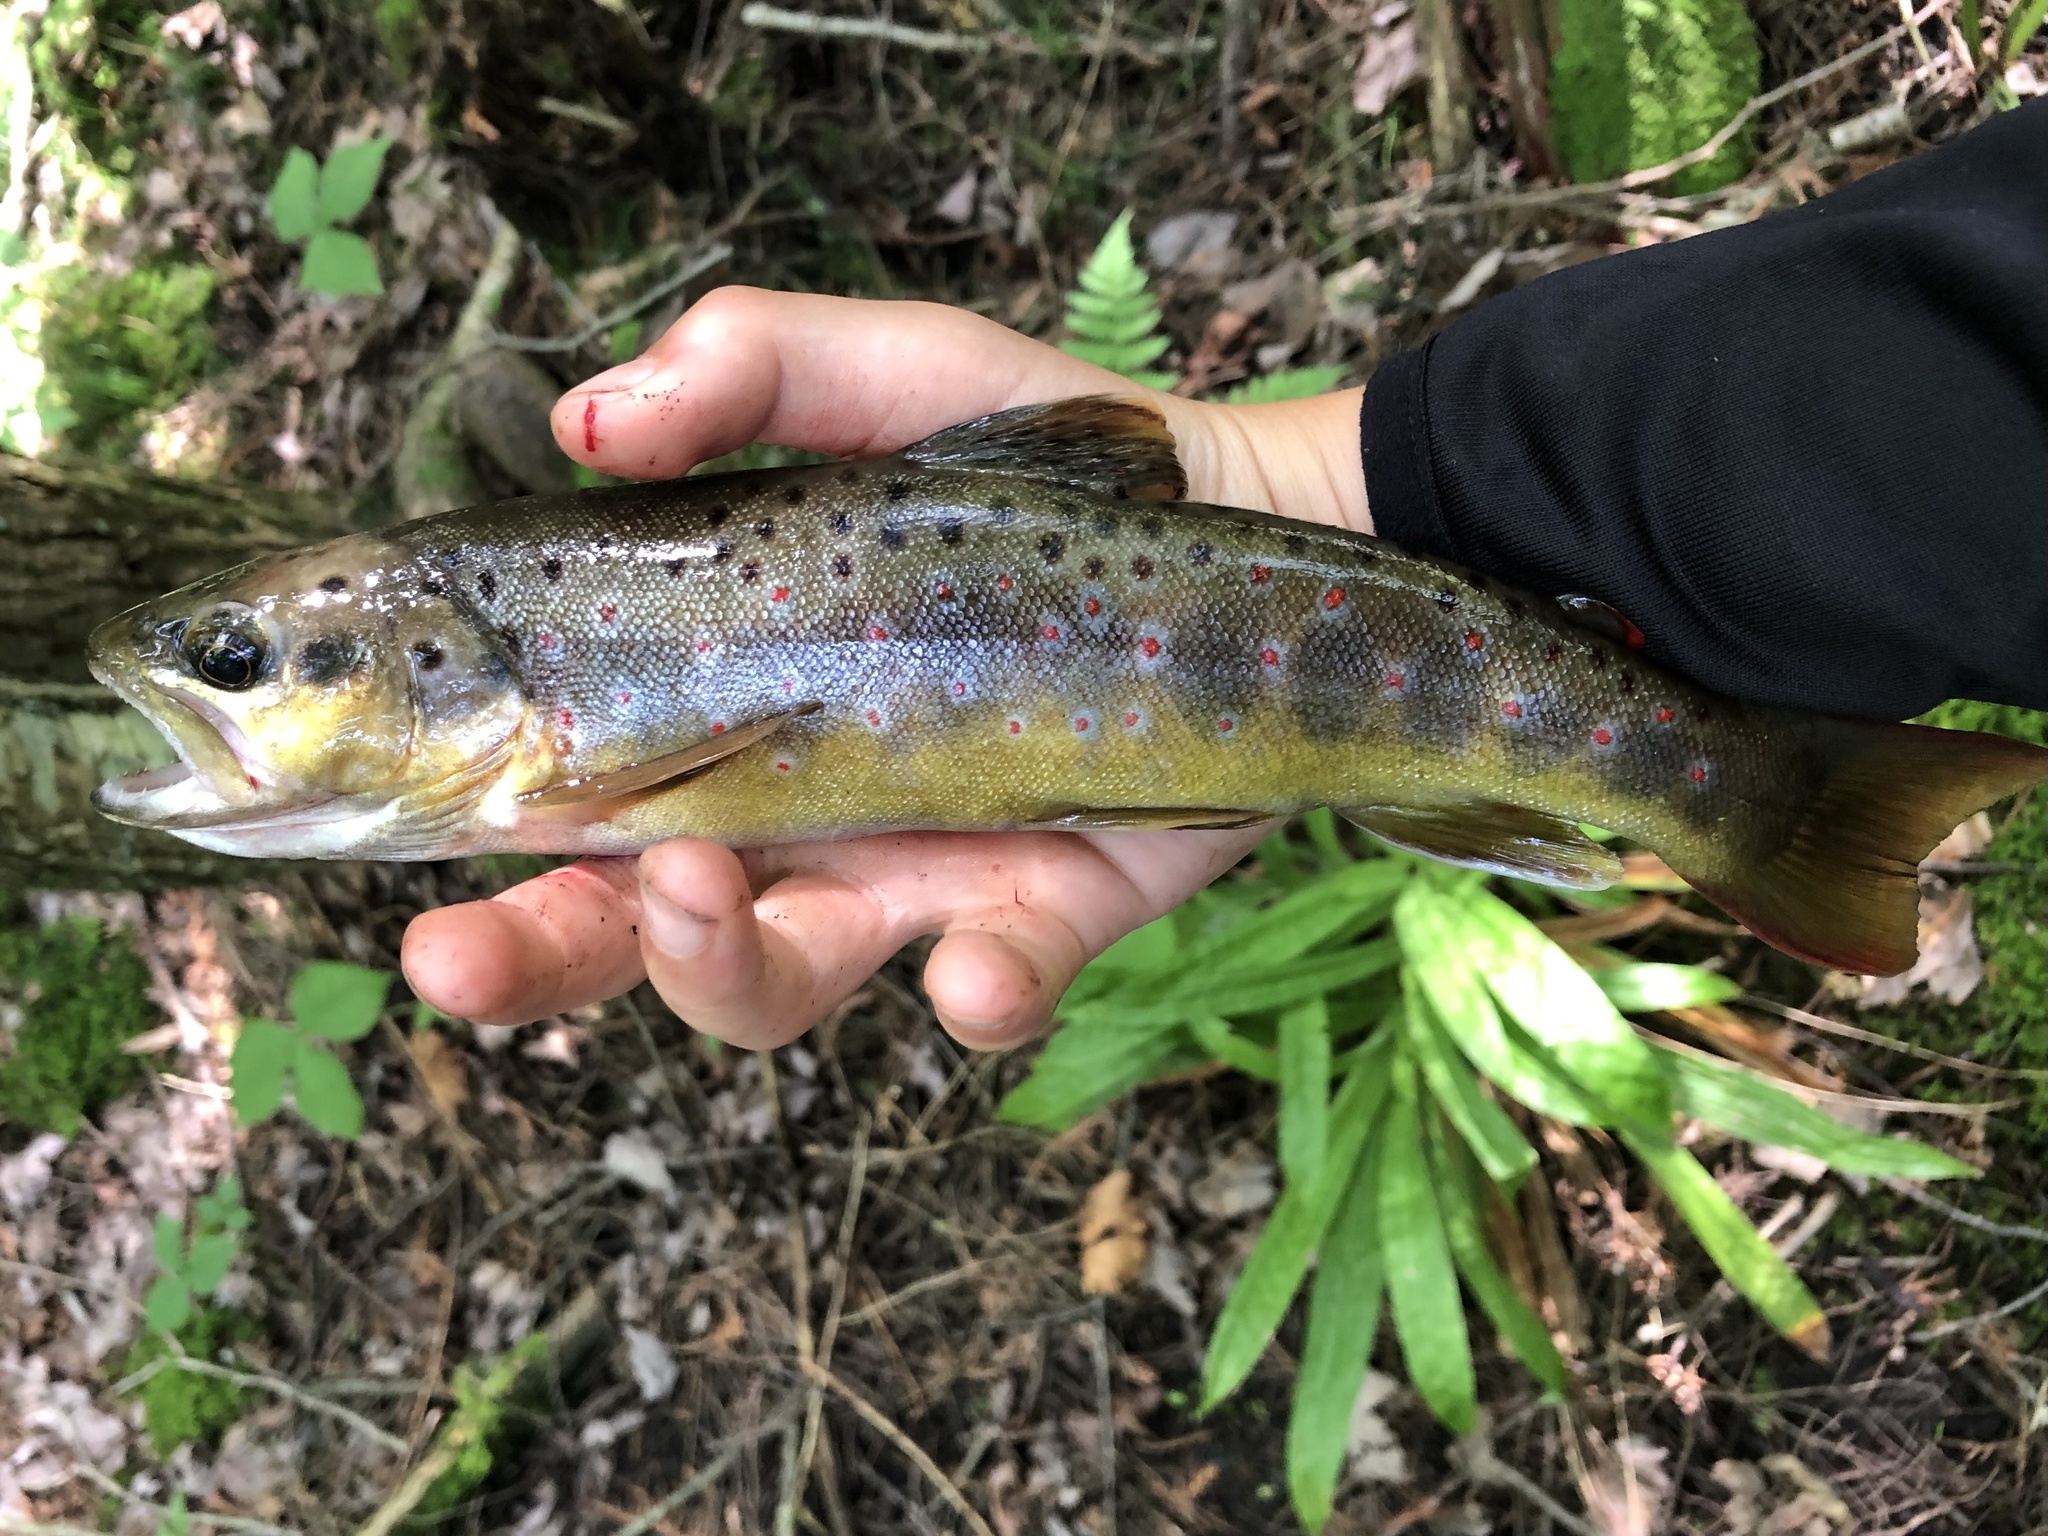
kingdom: Animalia
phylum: Chordata
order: Salmoniformes
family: Salmonidae
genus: Salmo
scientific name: Salmo trutta
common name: Brown trout
